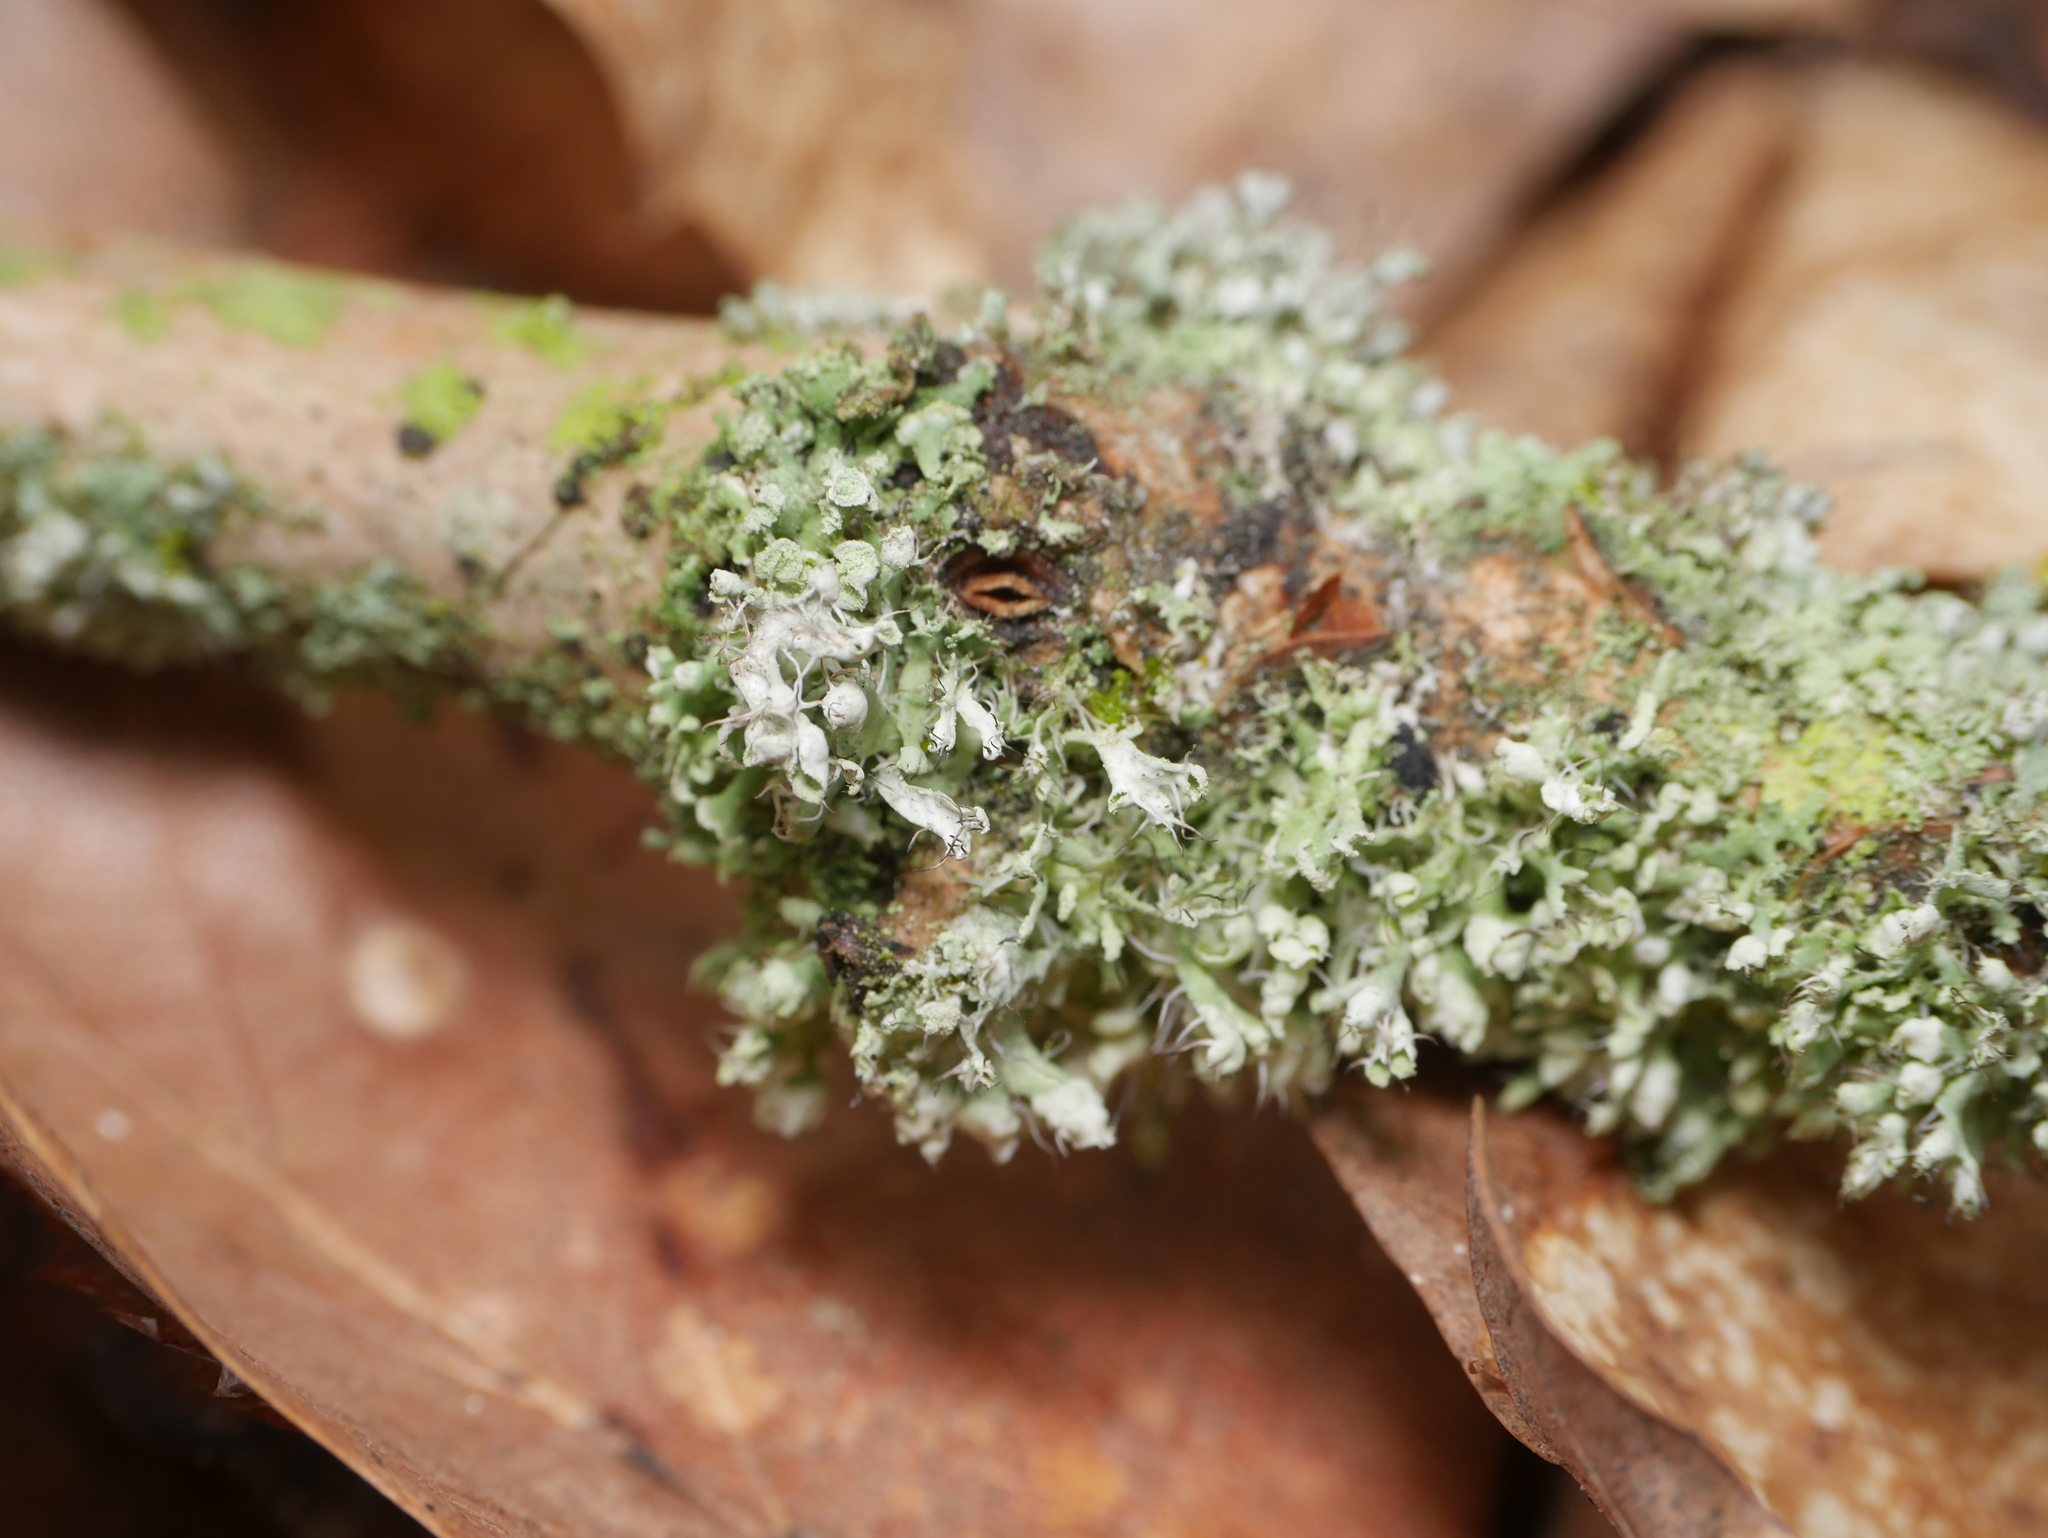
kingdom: Fungi
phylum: Ascomycota
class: Lecanoromycetes
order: Caliciales
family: Physciaceae
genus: Physcia
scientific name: Physcia adscendens
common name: Hooded rosette lichen
